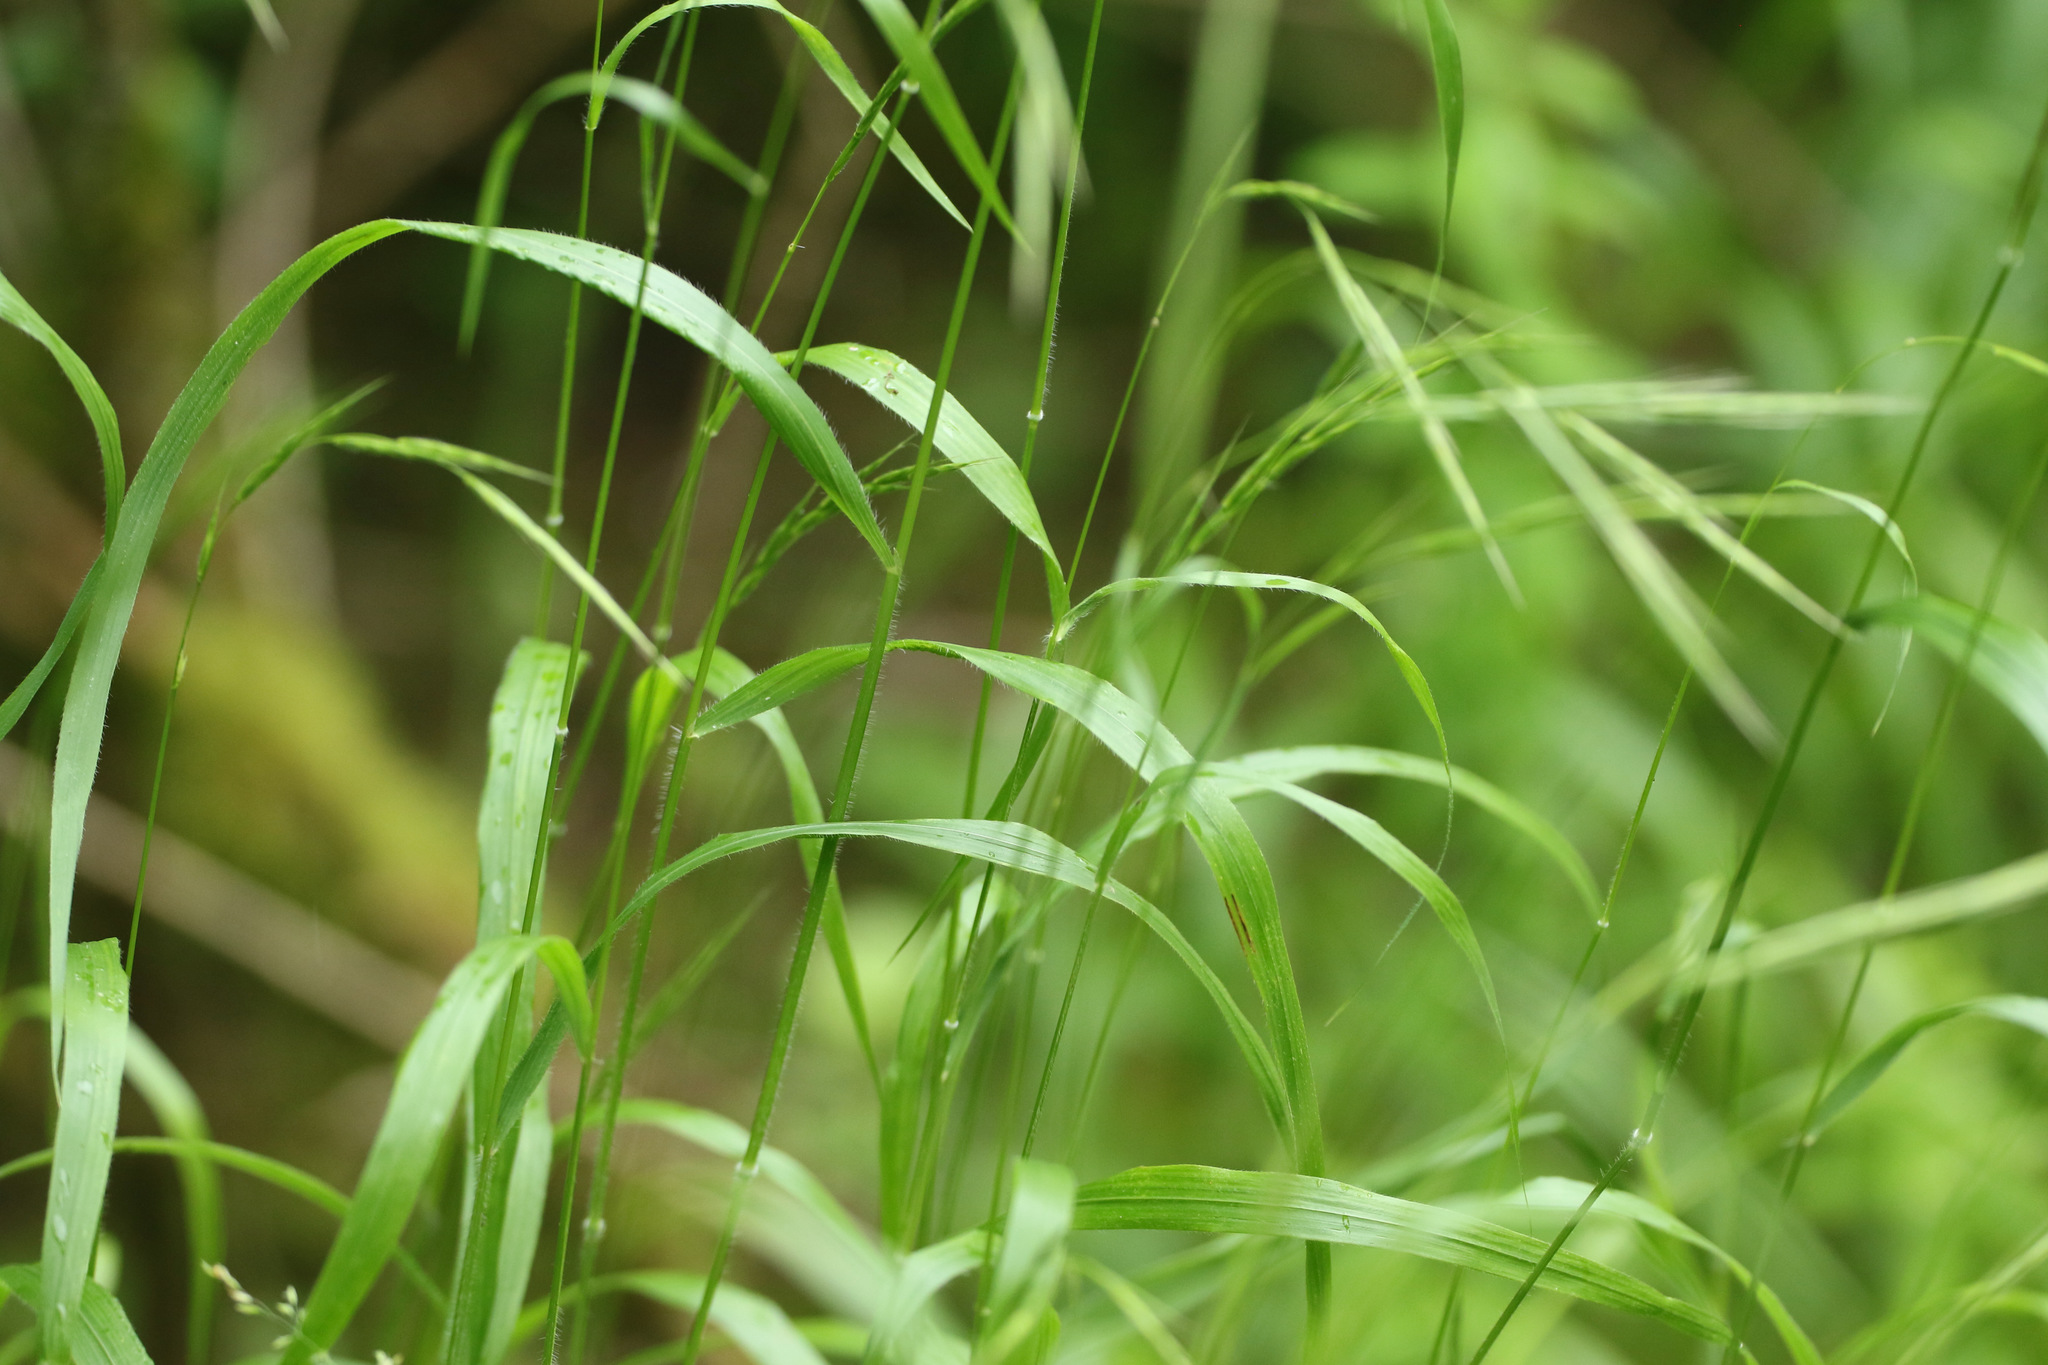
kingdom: Plantae
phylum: Tracheophyta
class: Liliopsida
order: Poales
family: Poaceae
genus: Brachypodium
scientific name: Brachypodium sylvaticum
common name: False-brome
